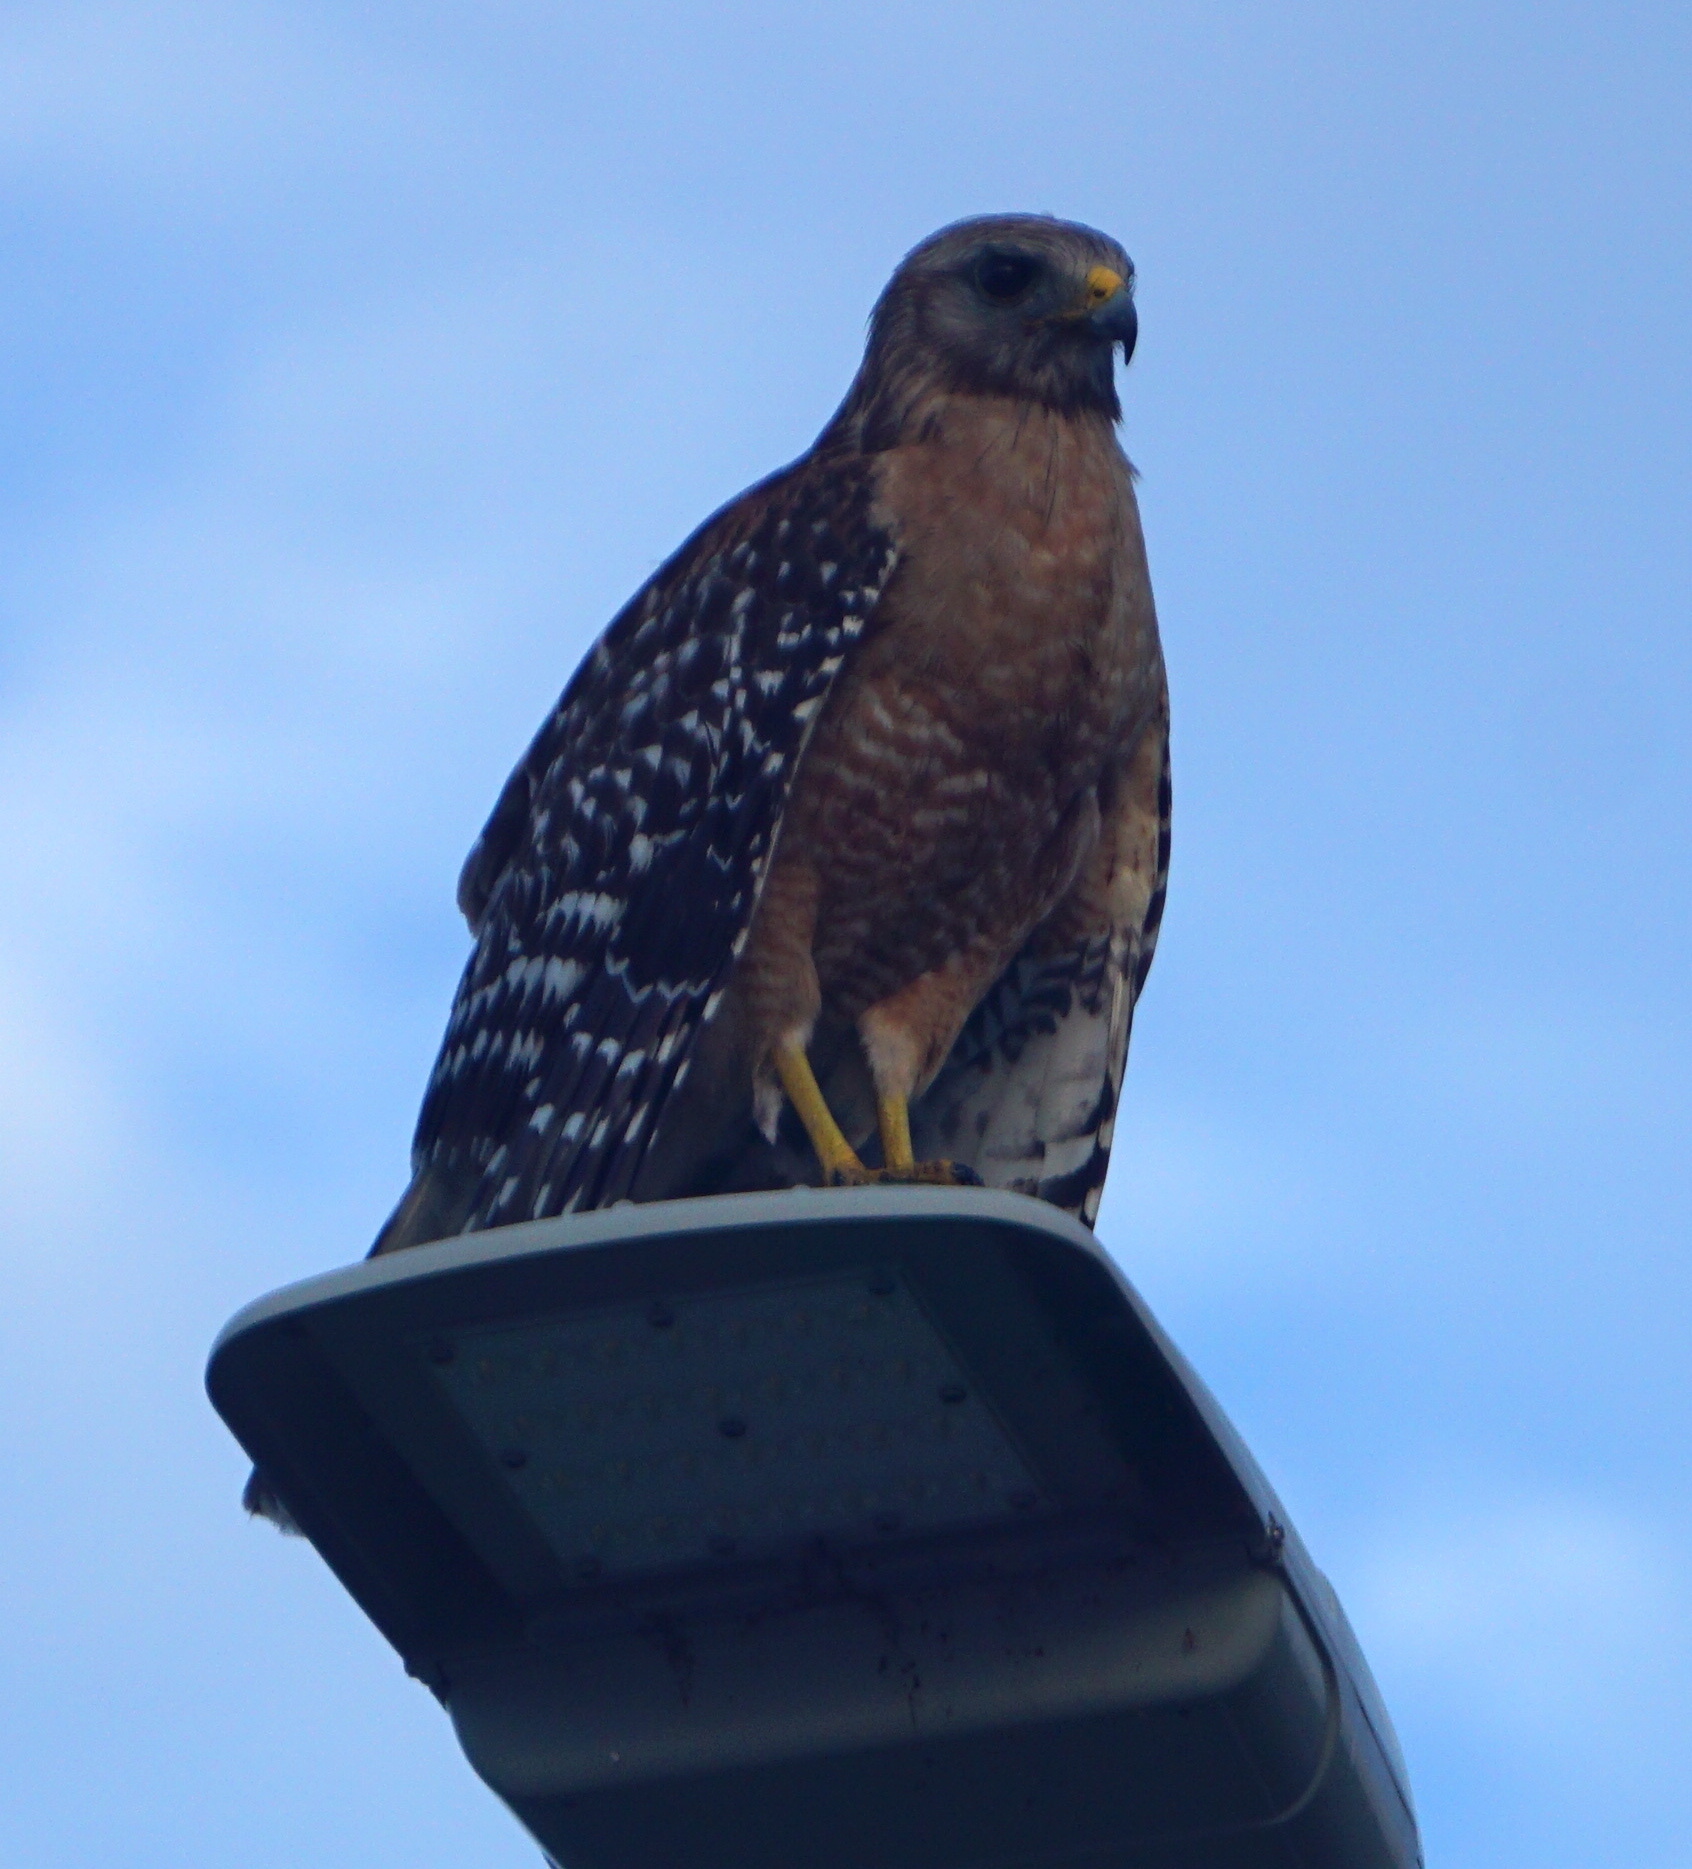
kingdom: Animalia
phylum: Chordata
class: Aves
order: Accipitriformes
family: Accipitridae
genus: Buteo
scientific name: Buteo lineatus
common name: Red-shouldered hawk
